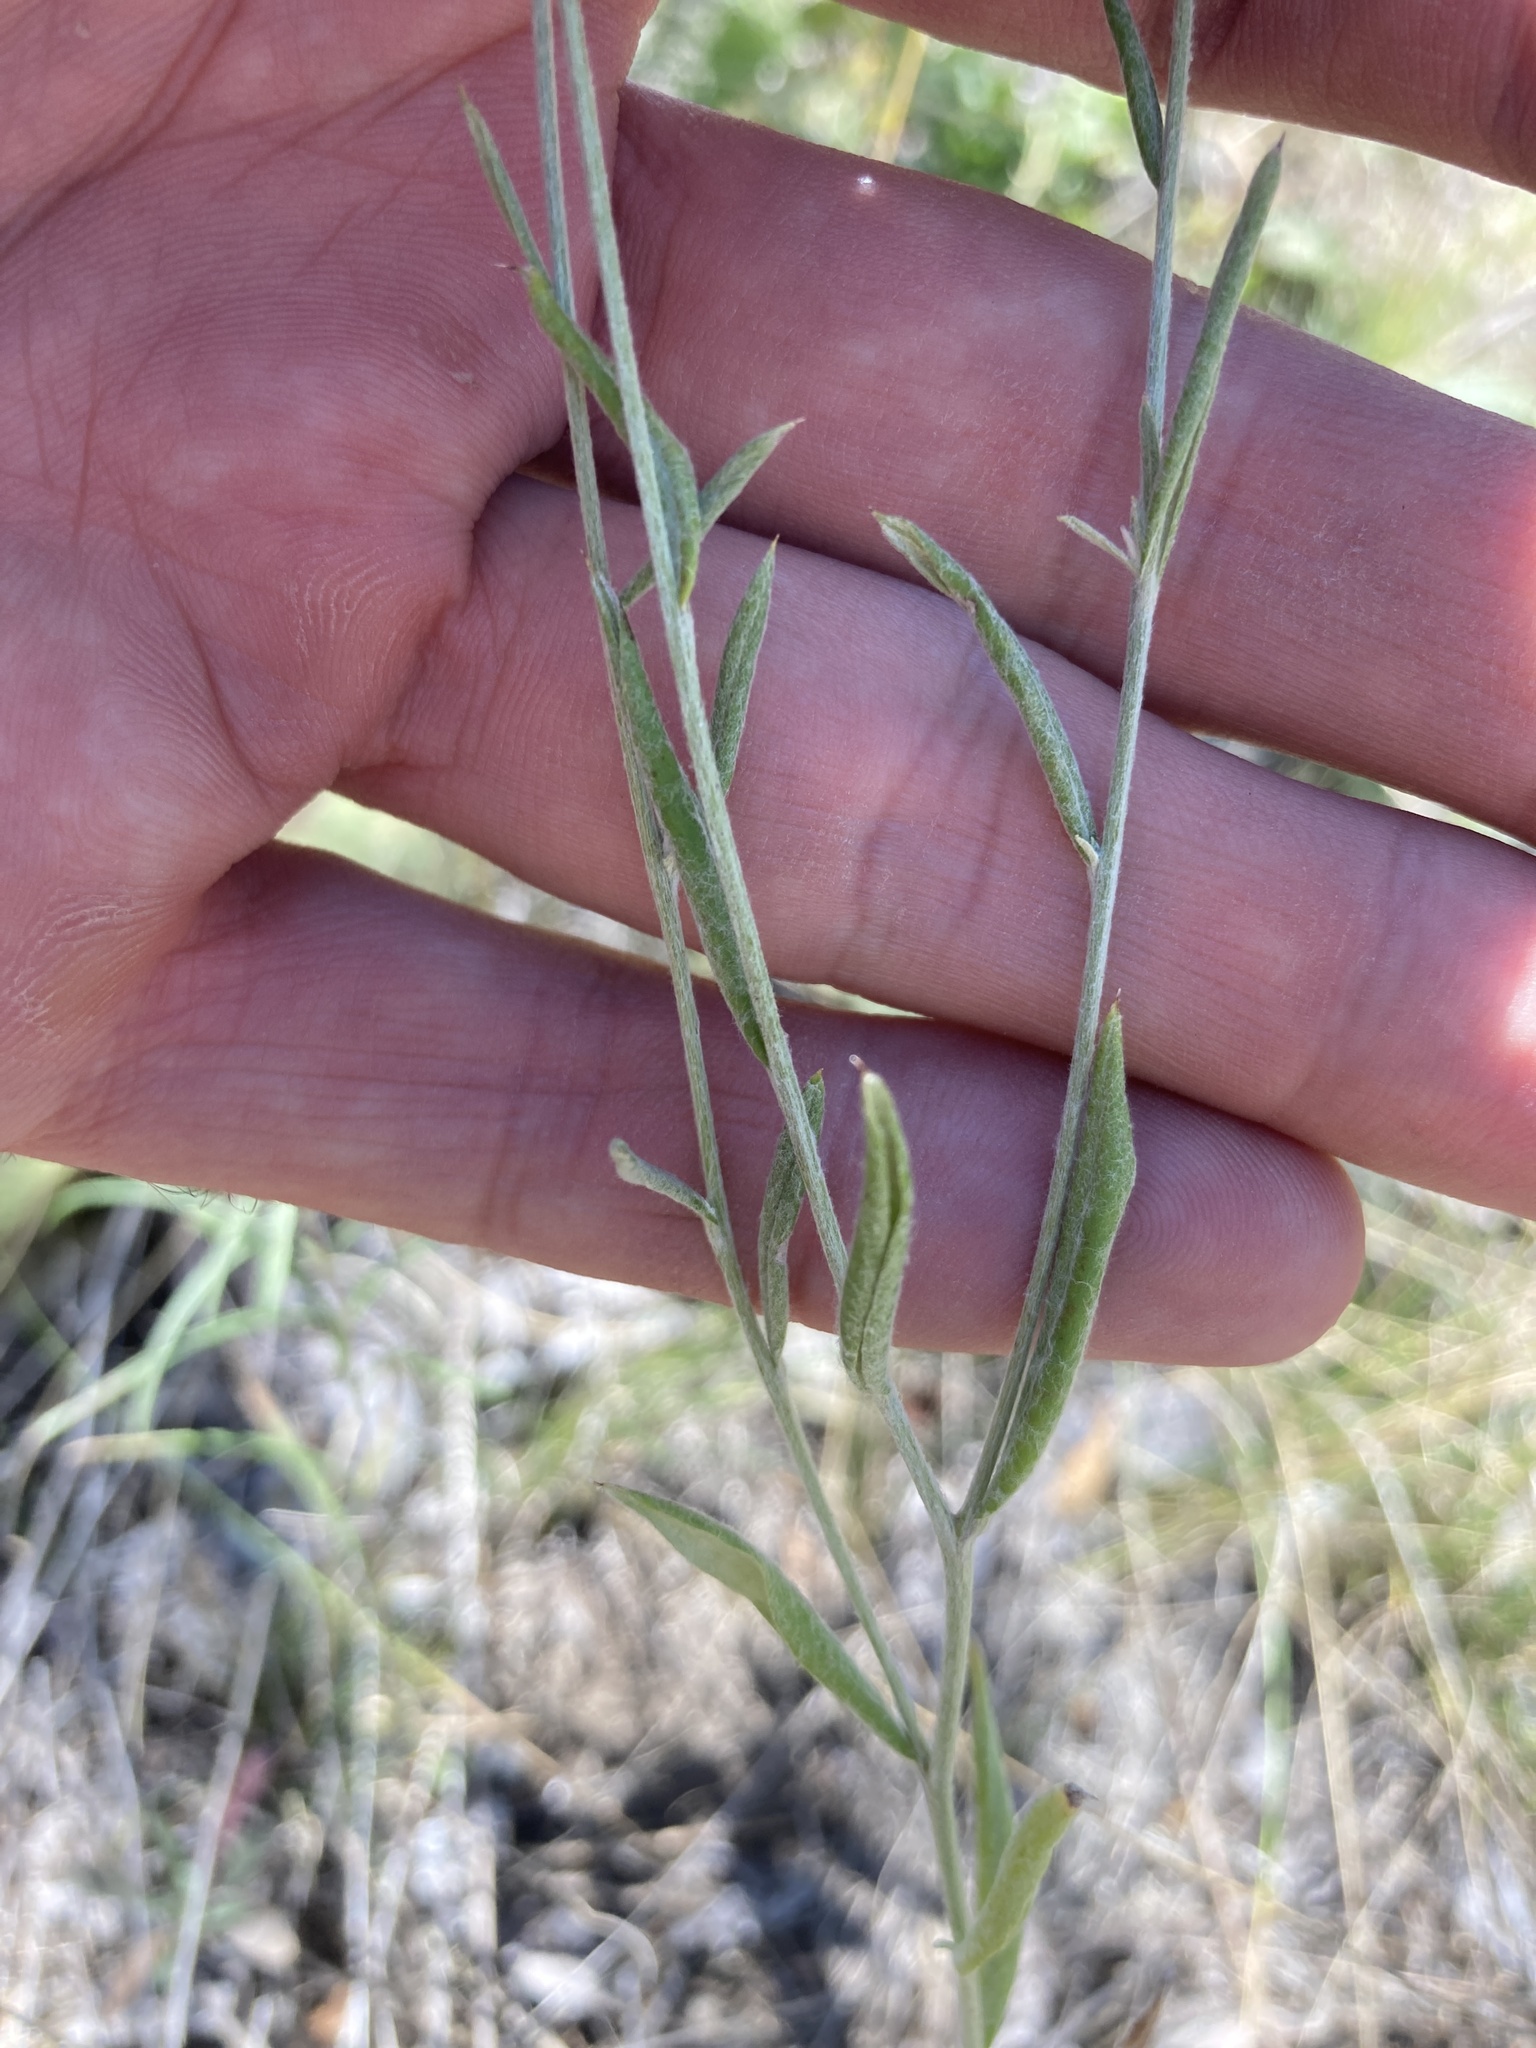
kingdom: Plantae
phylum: Tracheophyta
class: Magnoliopsida
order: Asterales
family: Asteraceae
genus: Xeranthemum
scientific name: Xeranthemum annuum
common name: Immortelle
